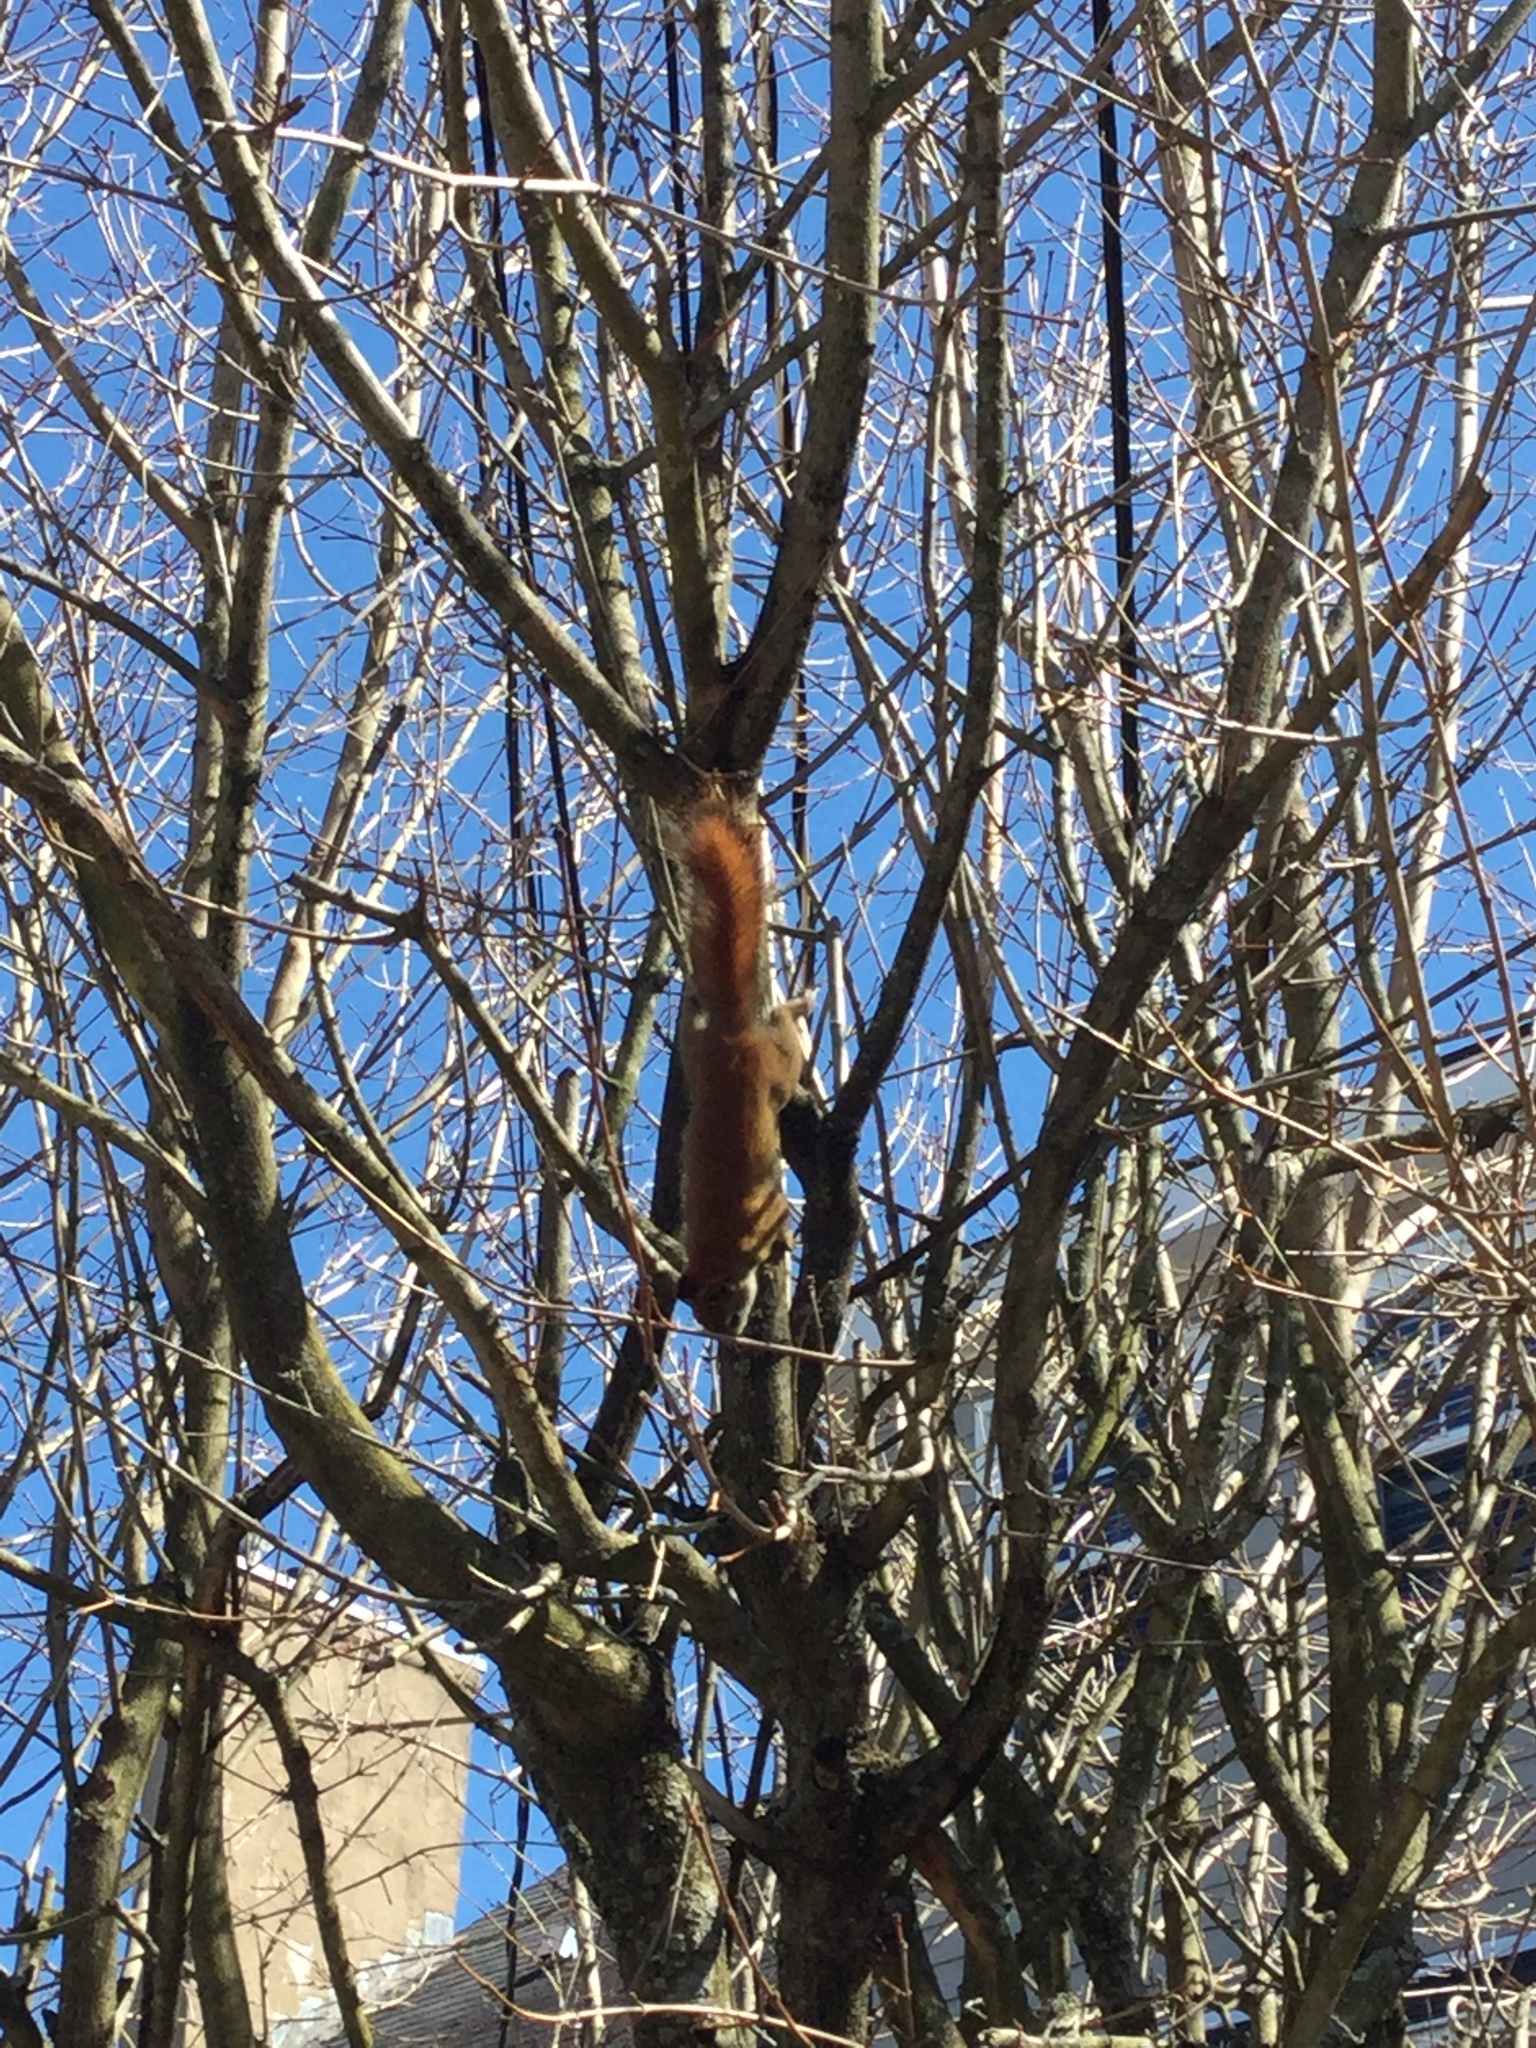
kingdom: Animalia
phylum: Chordata
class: Mammalia
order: Rodentia
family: Sciuridae
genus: Tamiasciurus
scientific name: Tamiasciurus hudsonicus
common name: Red squirrel
